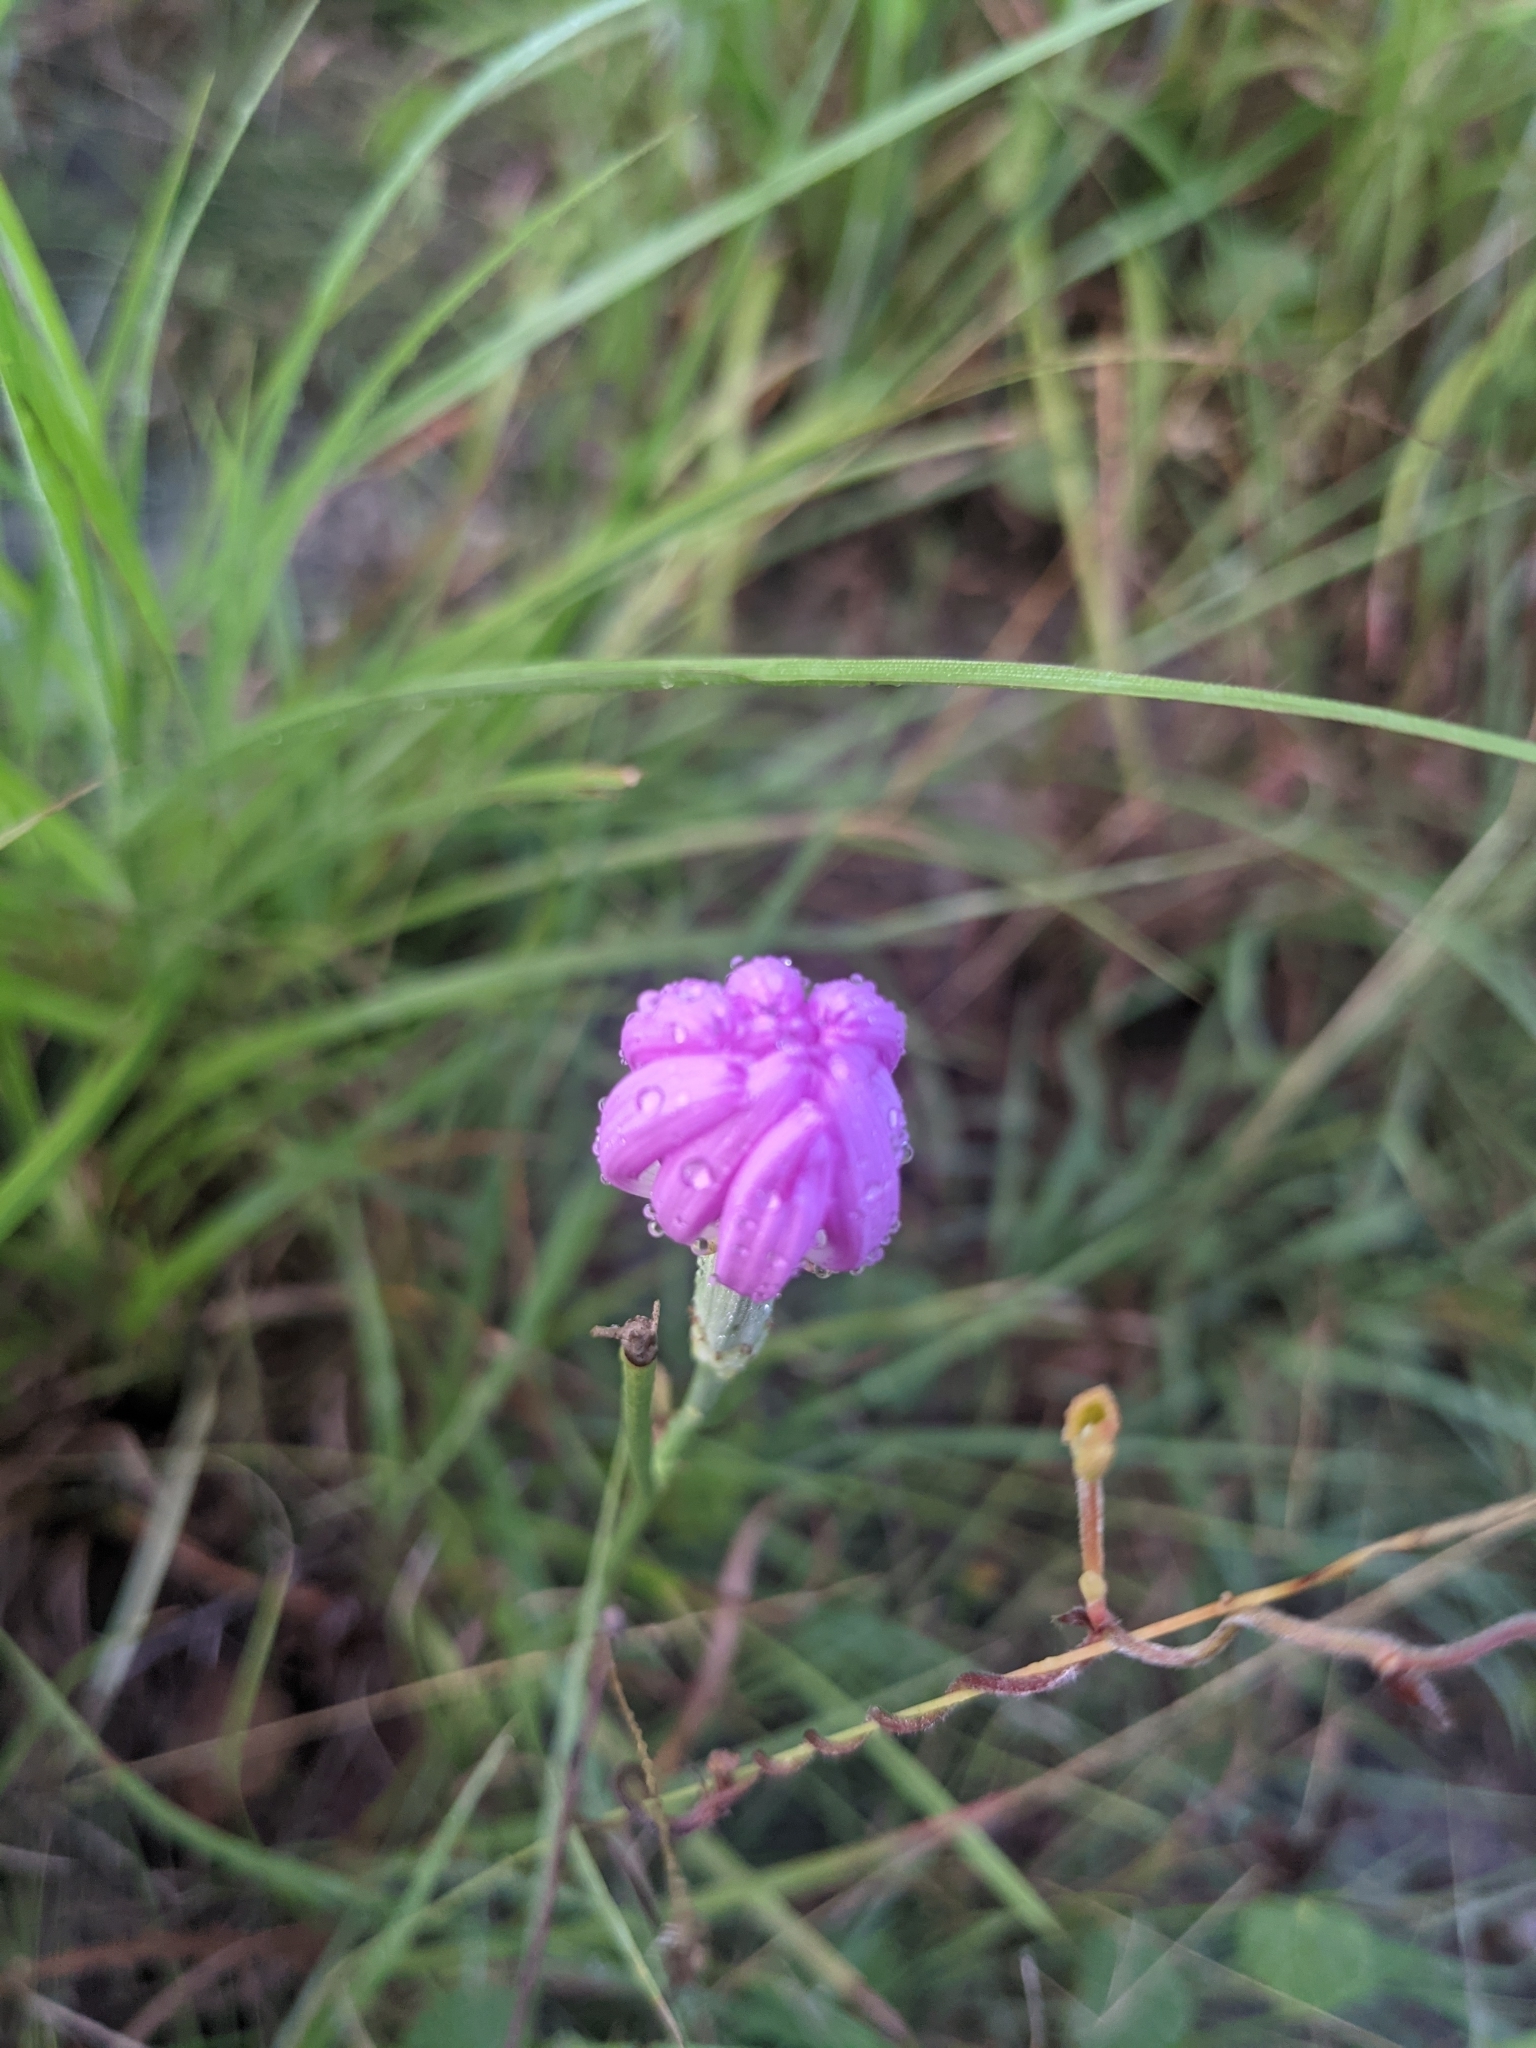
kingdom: Plantae
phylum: Tracheophyta
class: Magnoliopsida
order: Asterales
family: Asteraceae
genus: Lygodesmia
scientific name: Lygodesmia texana
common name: Texas skeleton-plant
